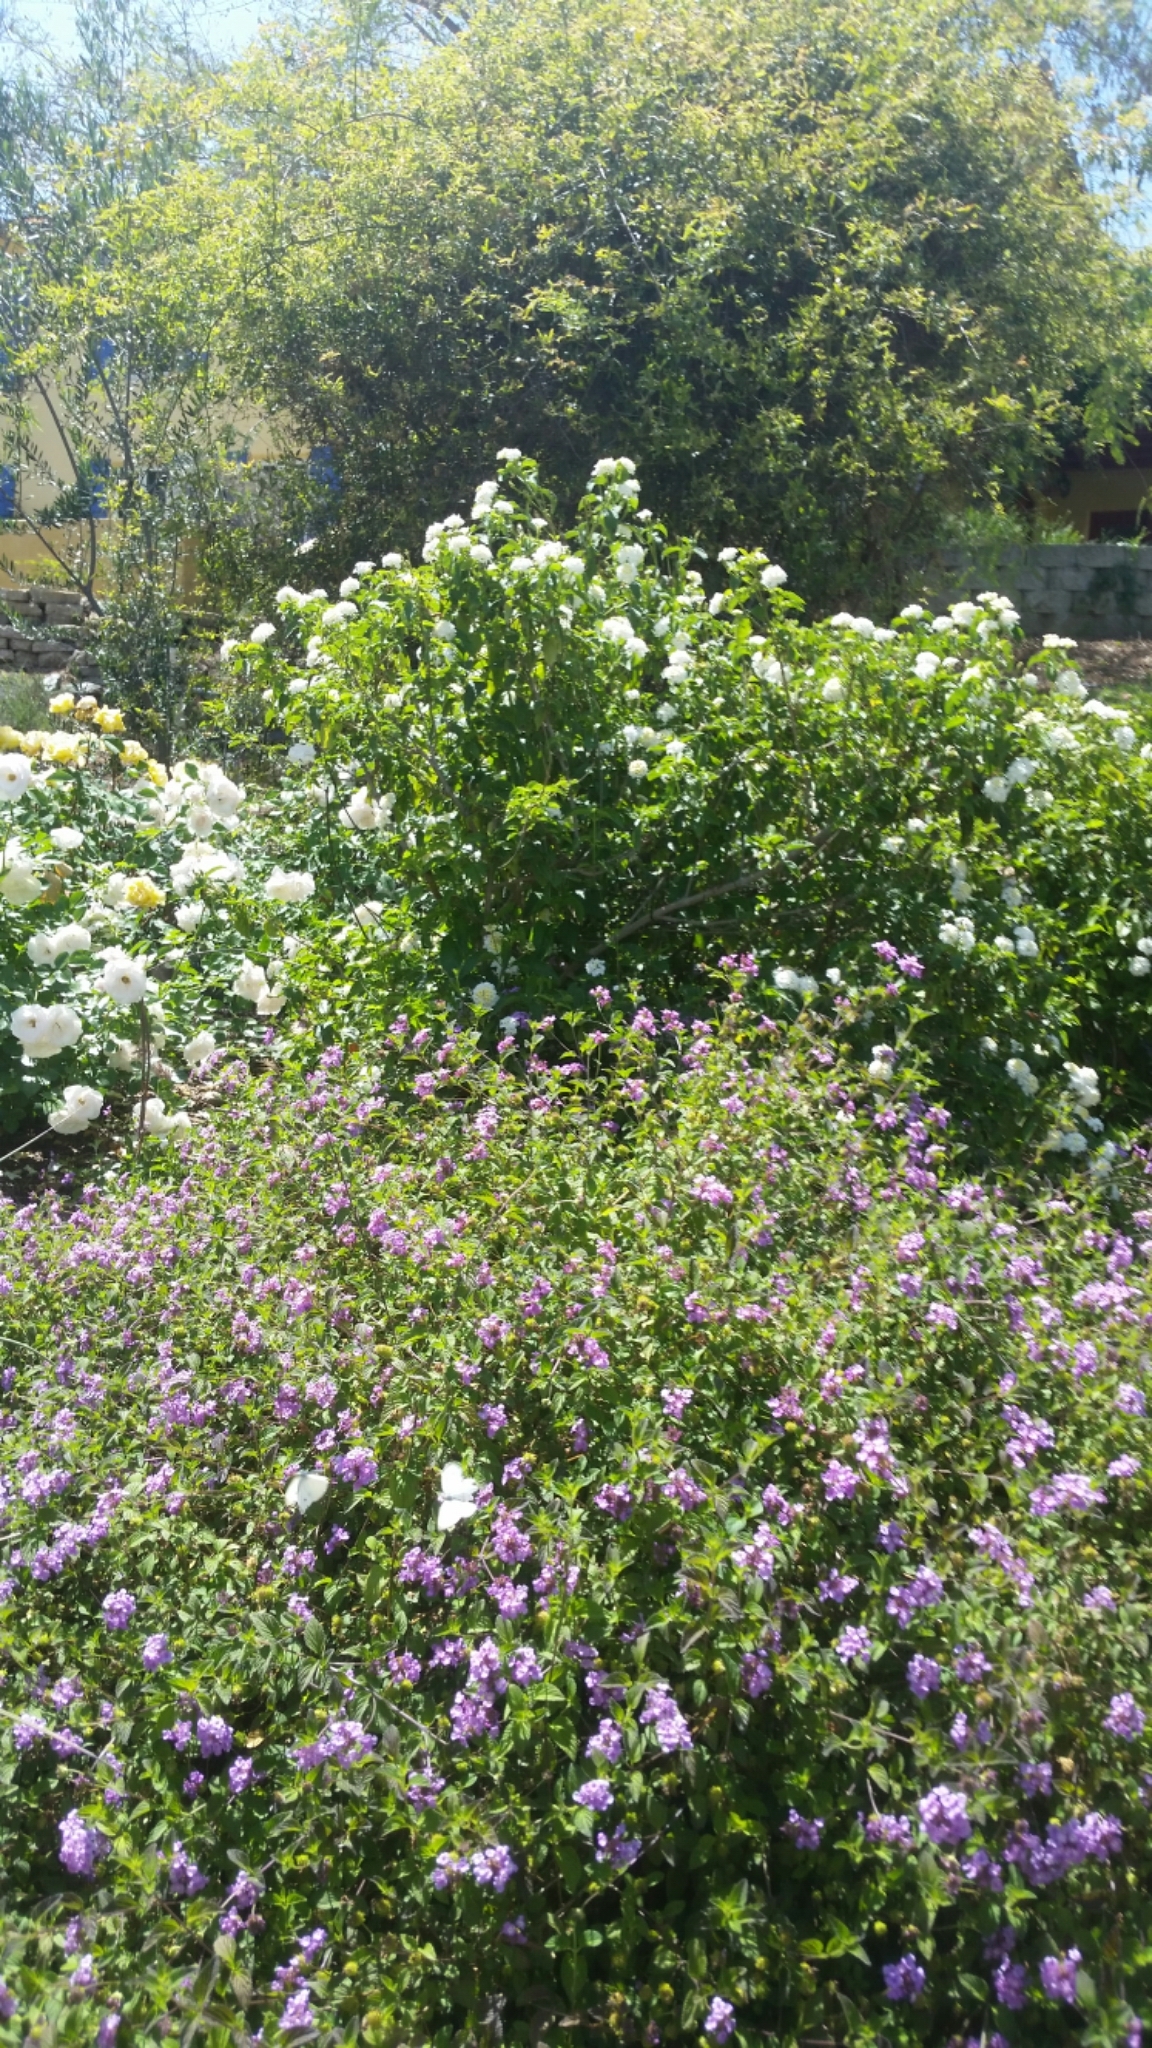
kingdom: Animalia
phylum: Arthropoda
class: Insecta
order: Lepidoptera
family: Pieridae
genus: Pieris
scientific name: Pieris rapae
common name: Small white
